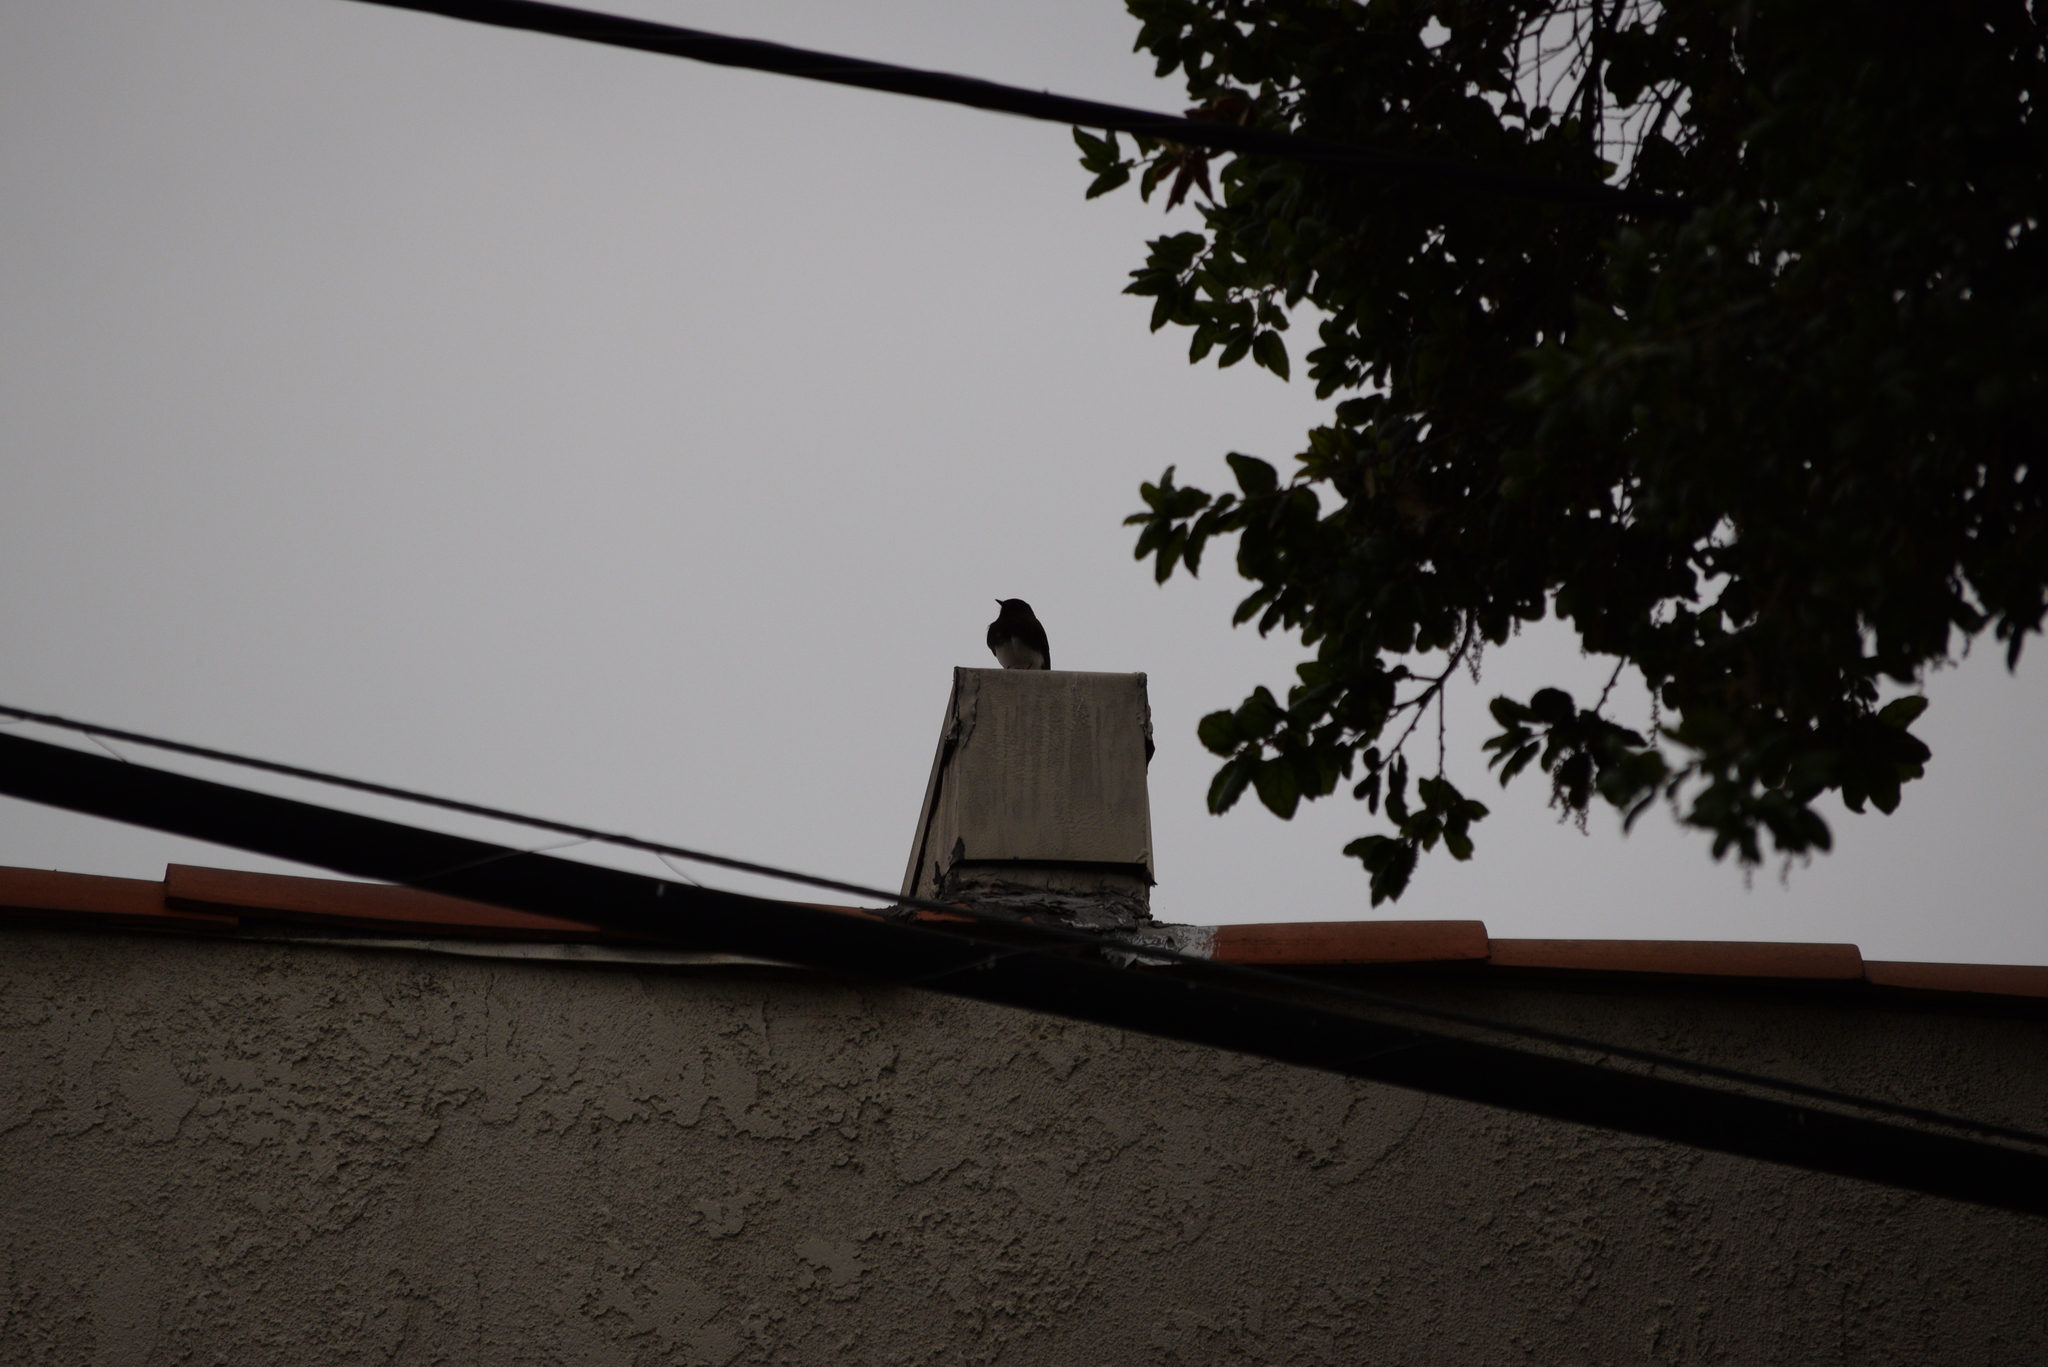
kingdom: Animalia
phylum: Chordata
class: Aves
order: Passeriformes
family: Tyrannidae
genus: Sayornis
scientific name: Sayornis nigricans
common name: Black phoebe
